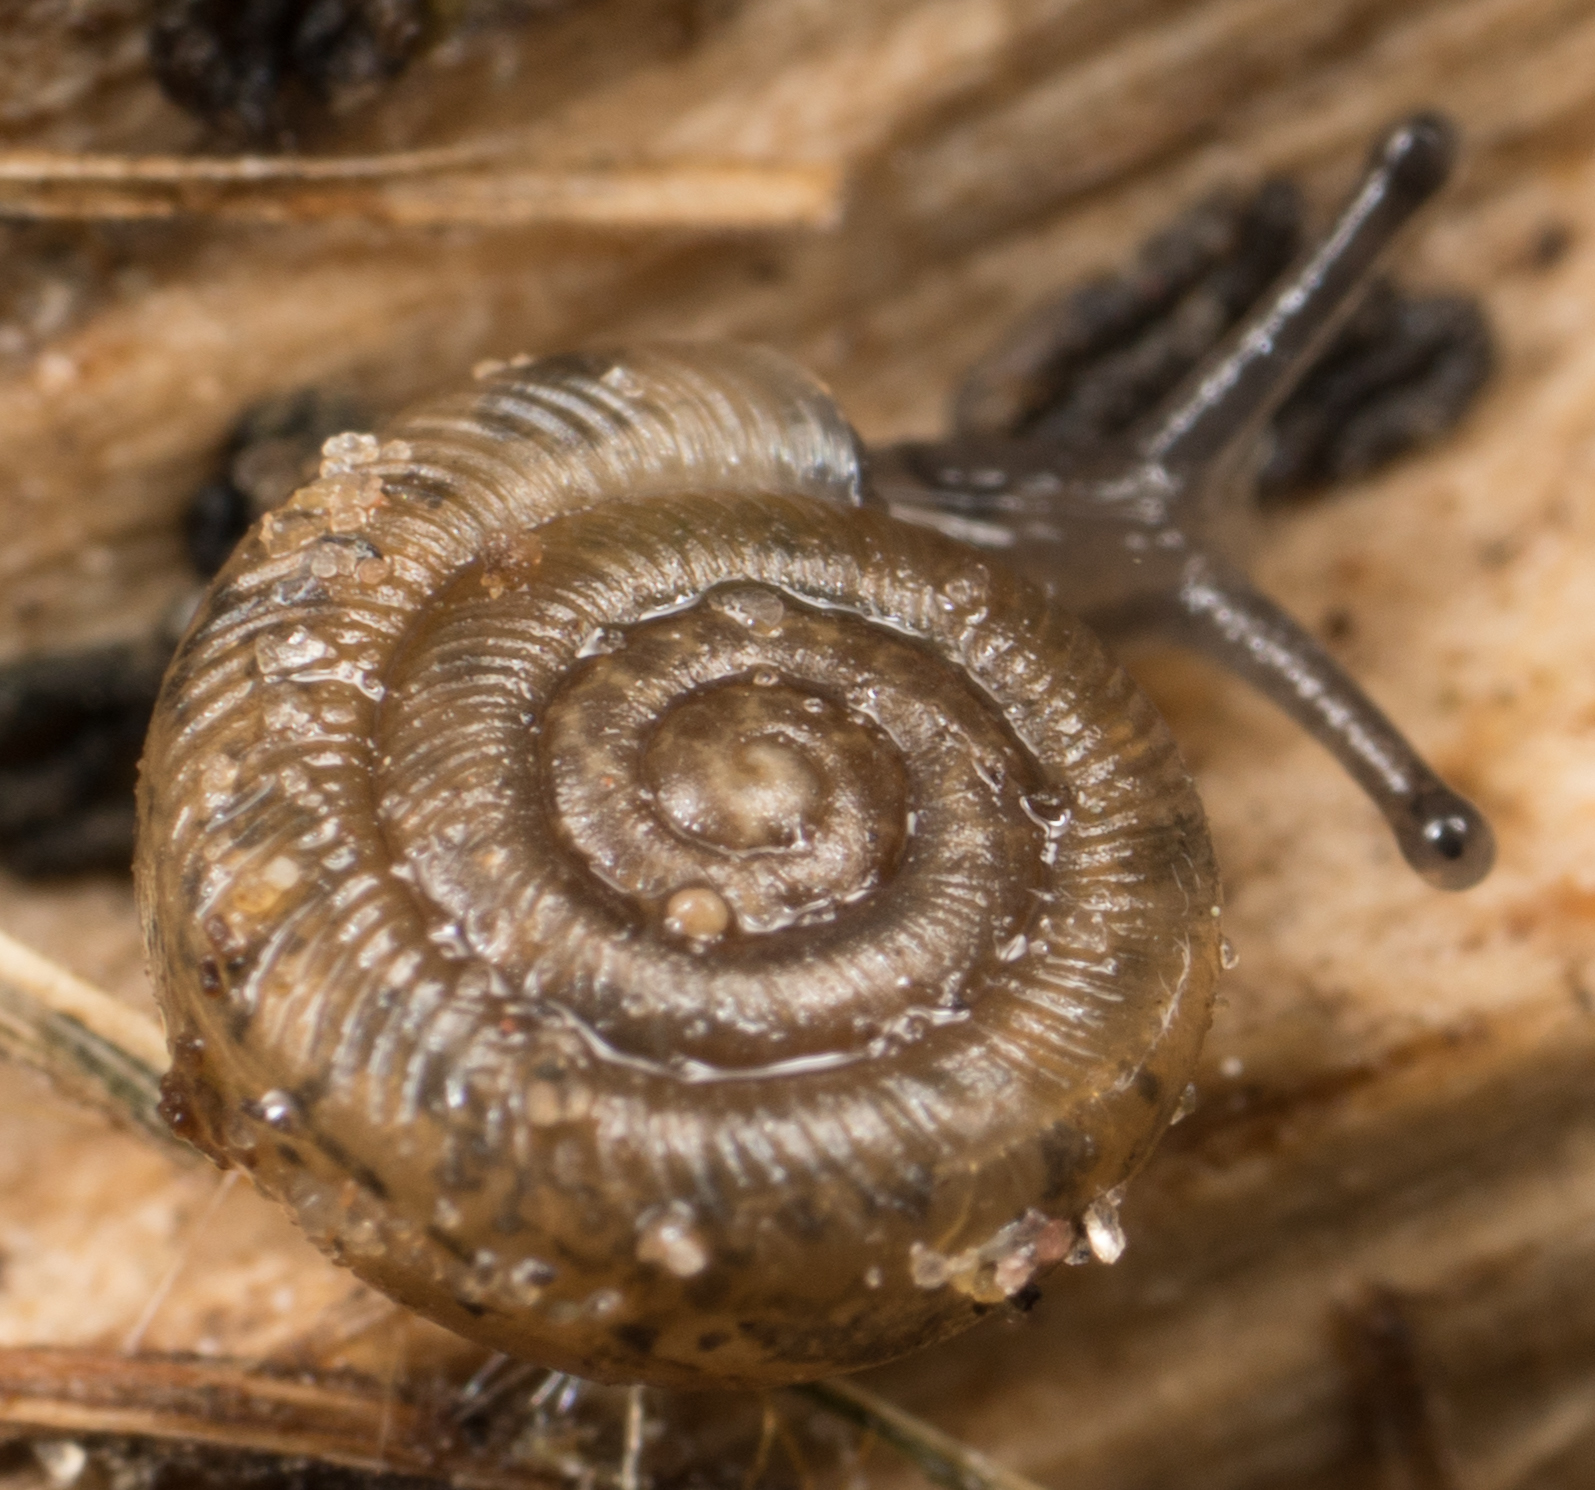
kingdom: Animalia
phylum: Mollusca
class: Gastropoda
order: Stylommatophora
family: Polygyridae
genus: Polygyra
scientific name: Polygyra cereolus
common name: Southern flatcone snail
